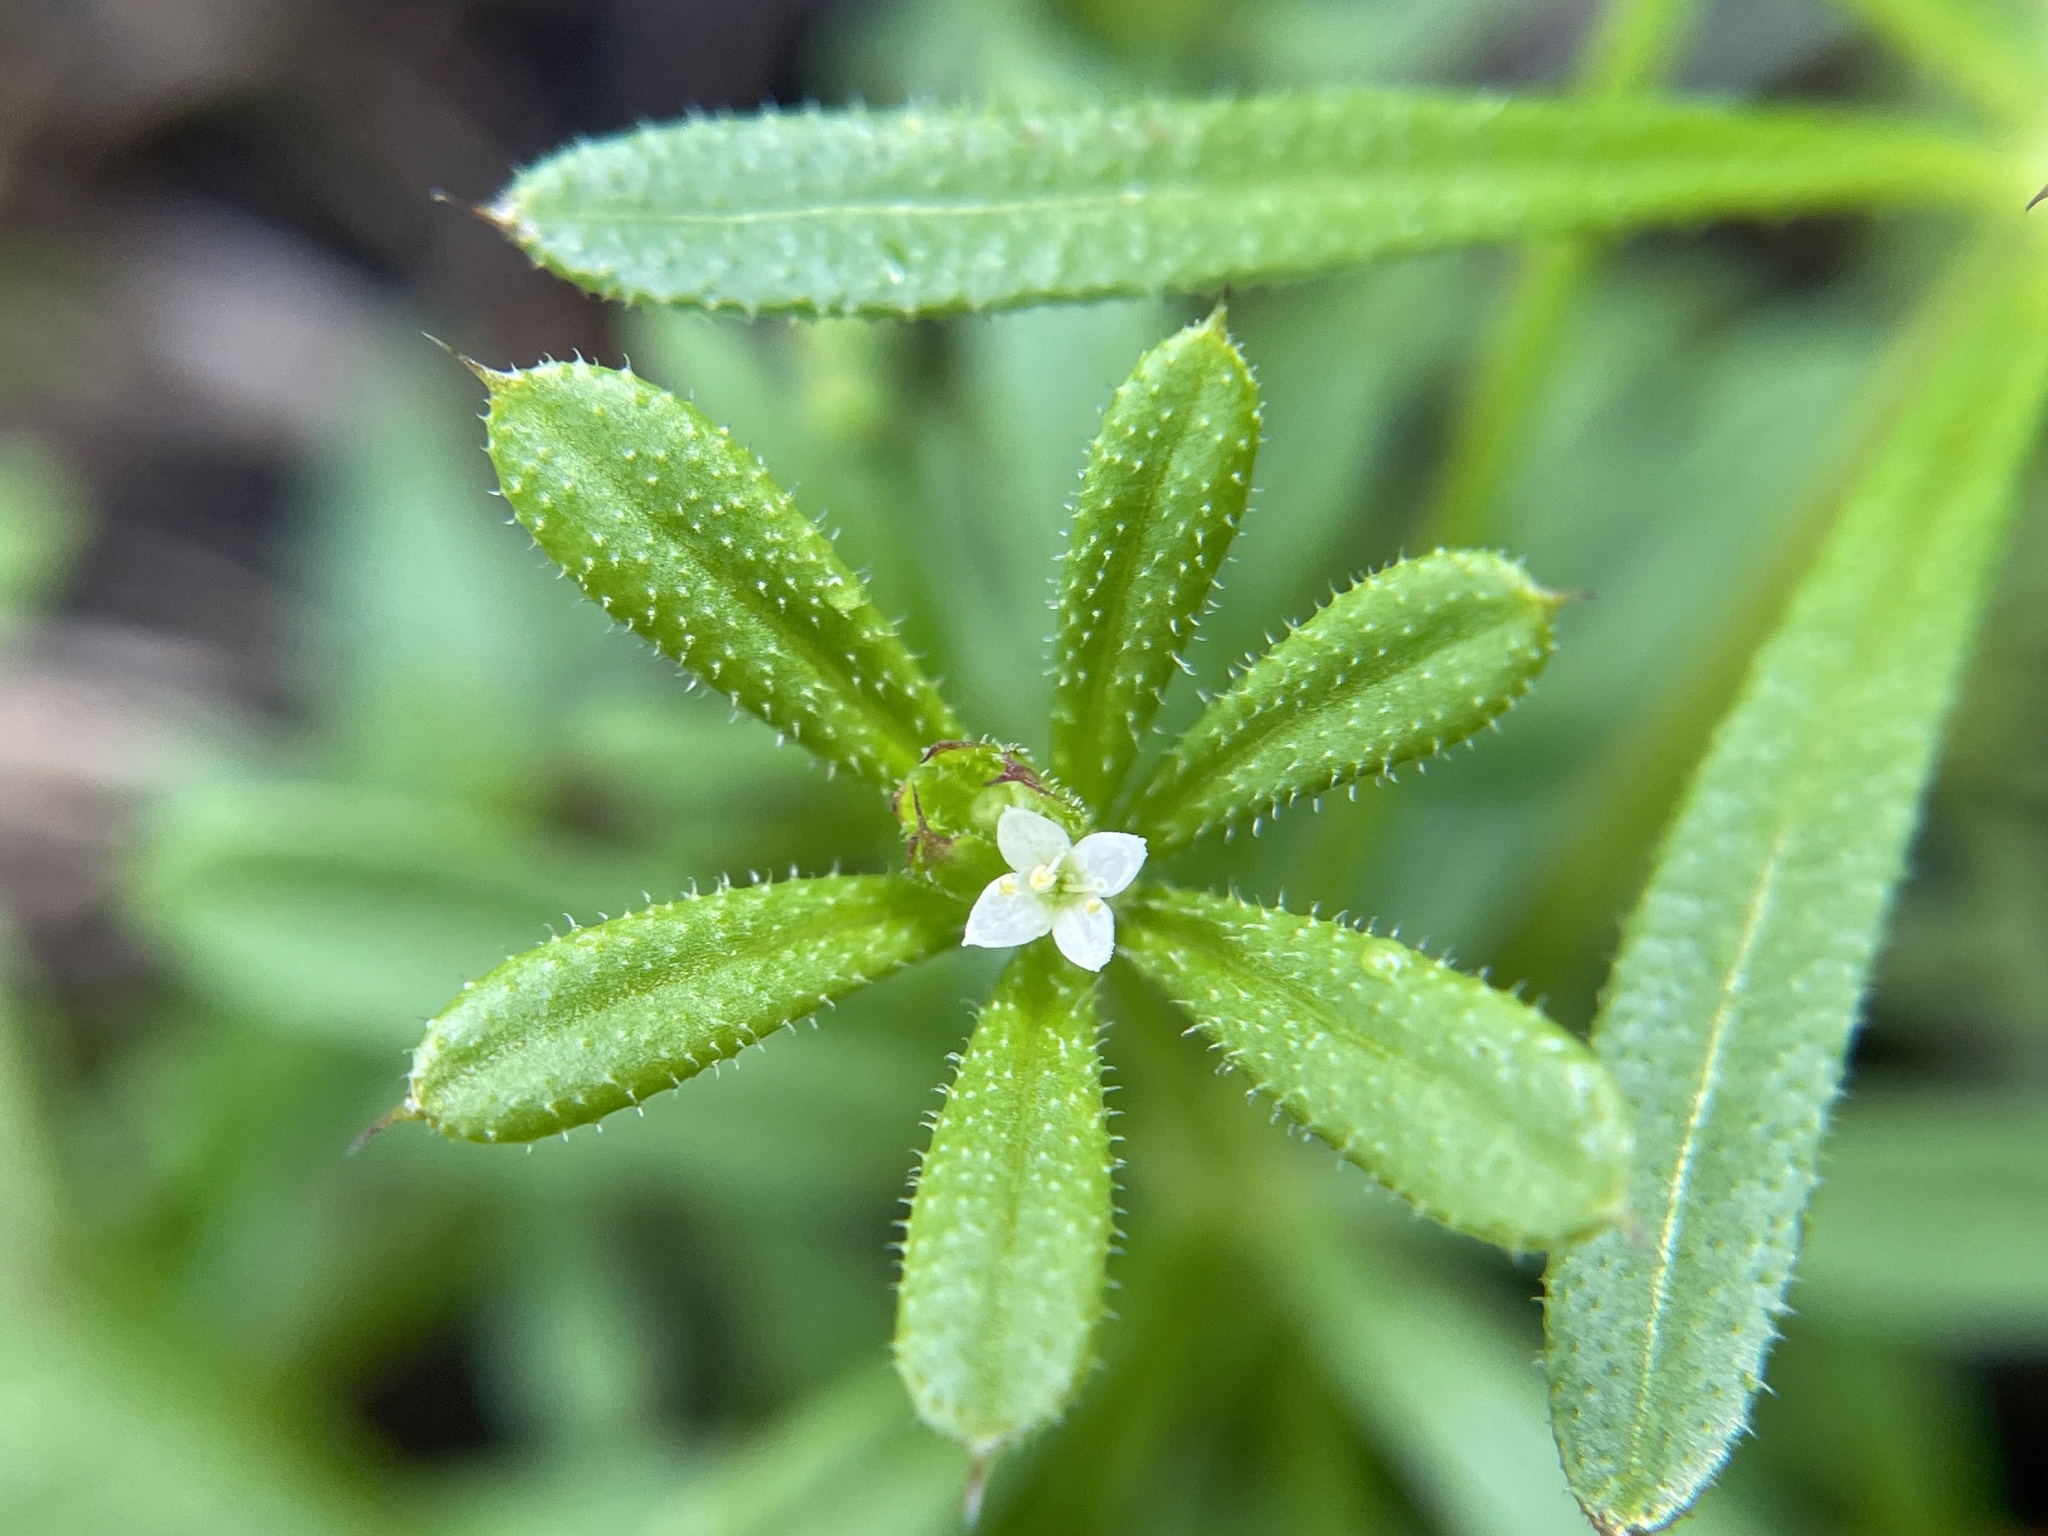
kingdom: Plantae
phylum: Tracheophyta
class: Magnoliopsida
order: Gentianales
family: Rubiaceae
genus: Galium
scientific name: Galium aparine
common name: Cleavers
